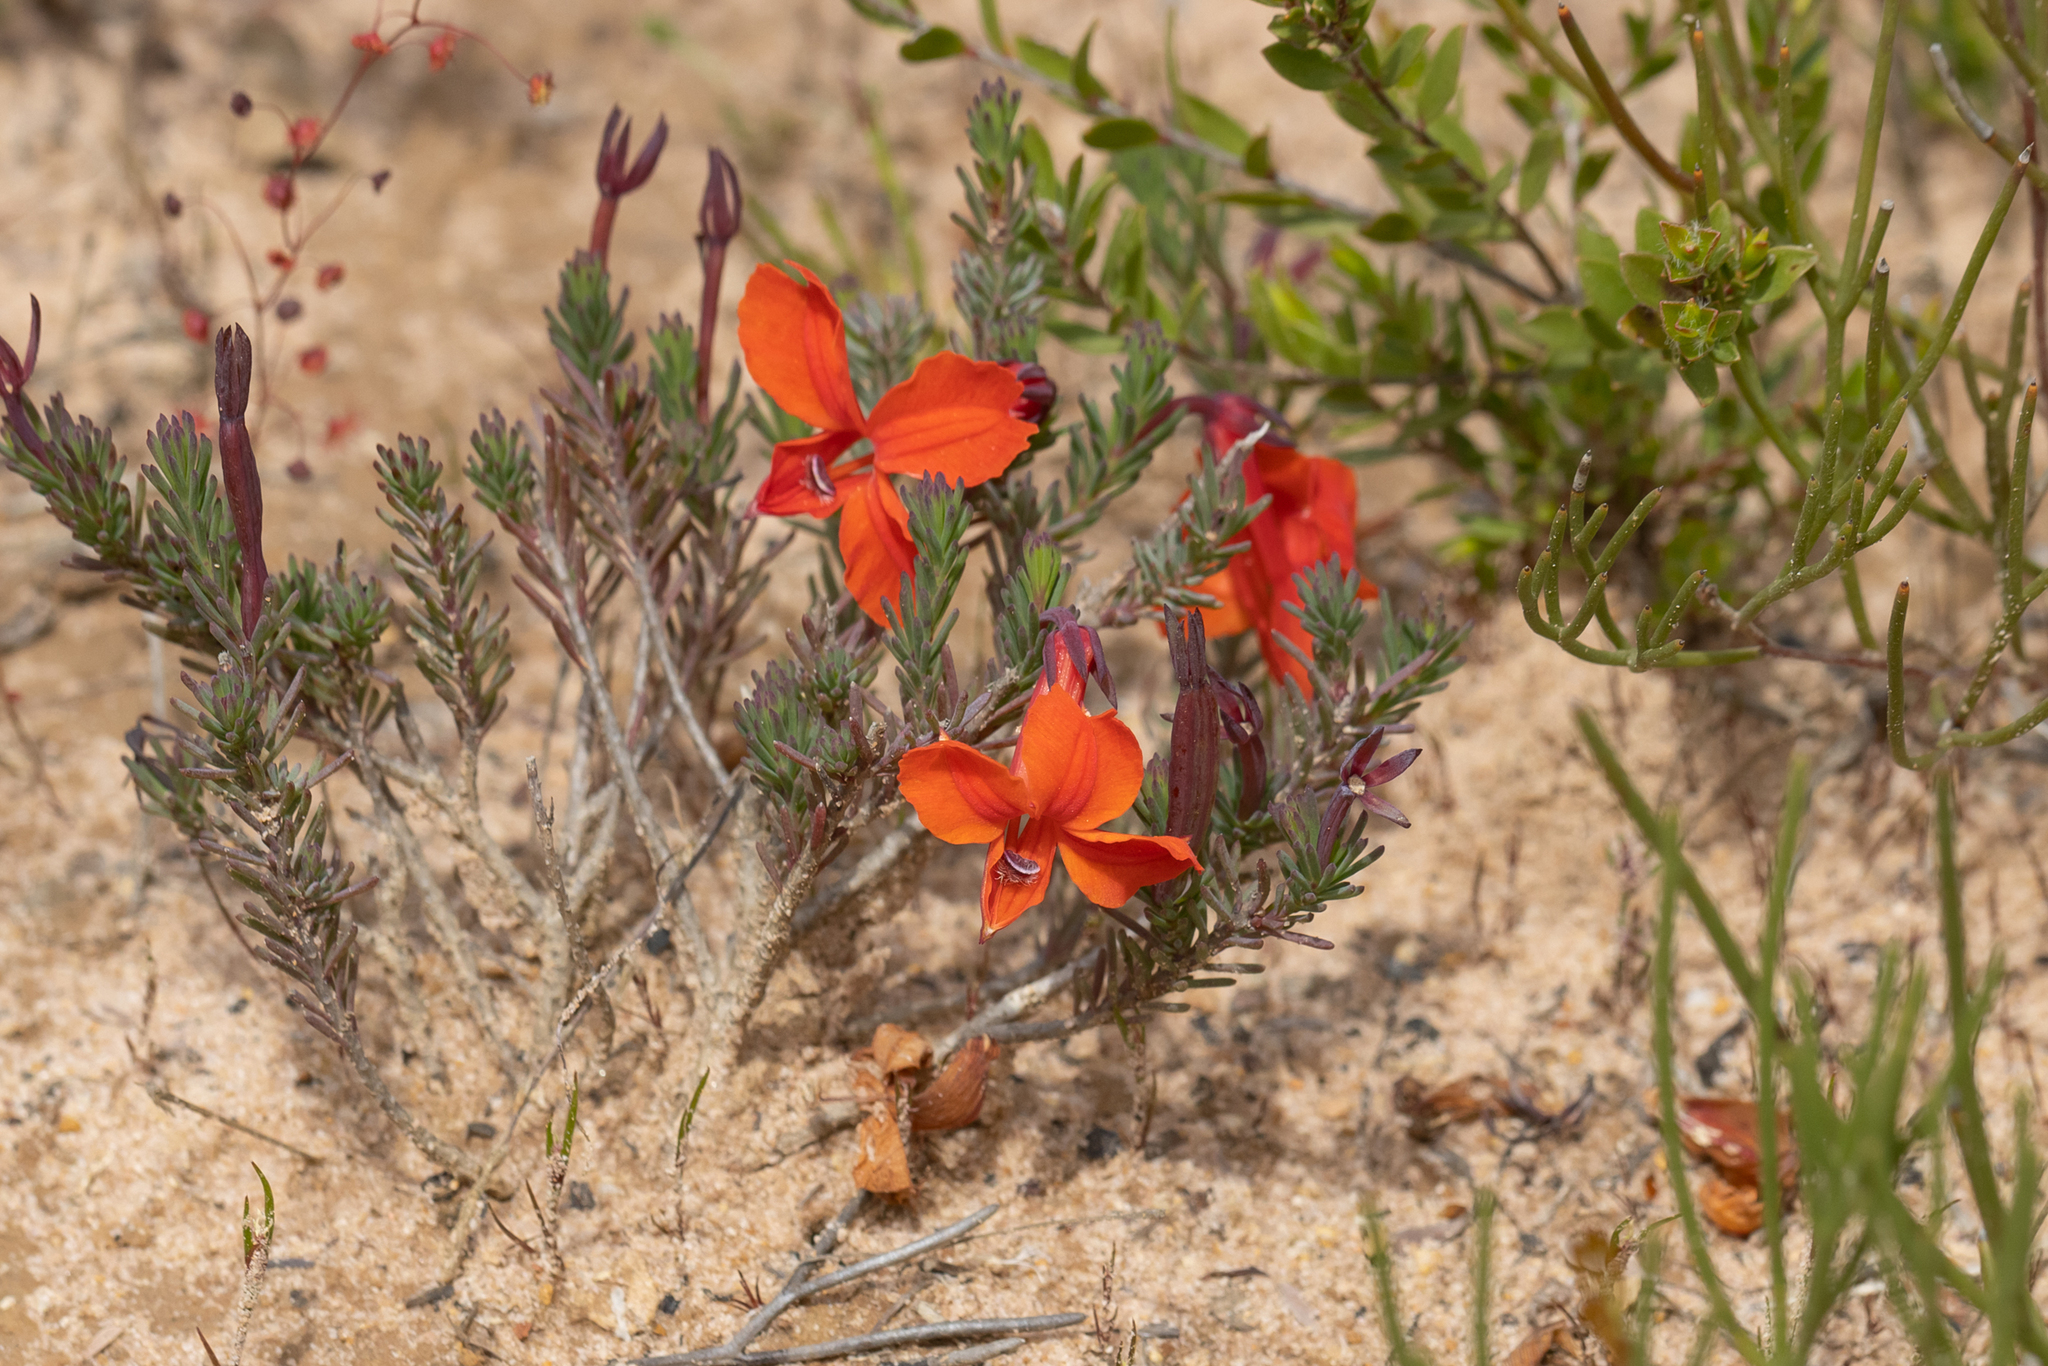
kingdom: Plantae
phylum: Tracheophyta
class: Magnoliopsida
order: Asterales
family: Goodeniaceae
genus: Lechenaultia
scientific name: Lechenaultia formosa
